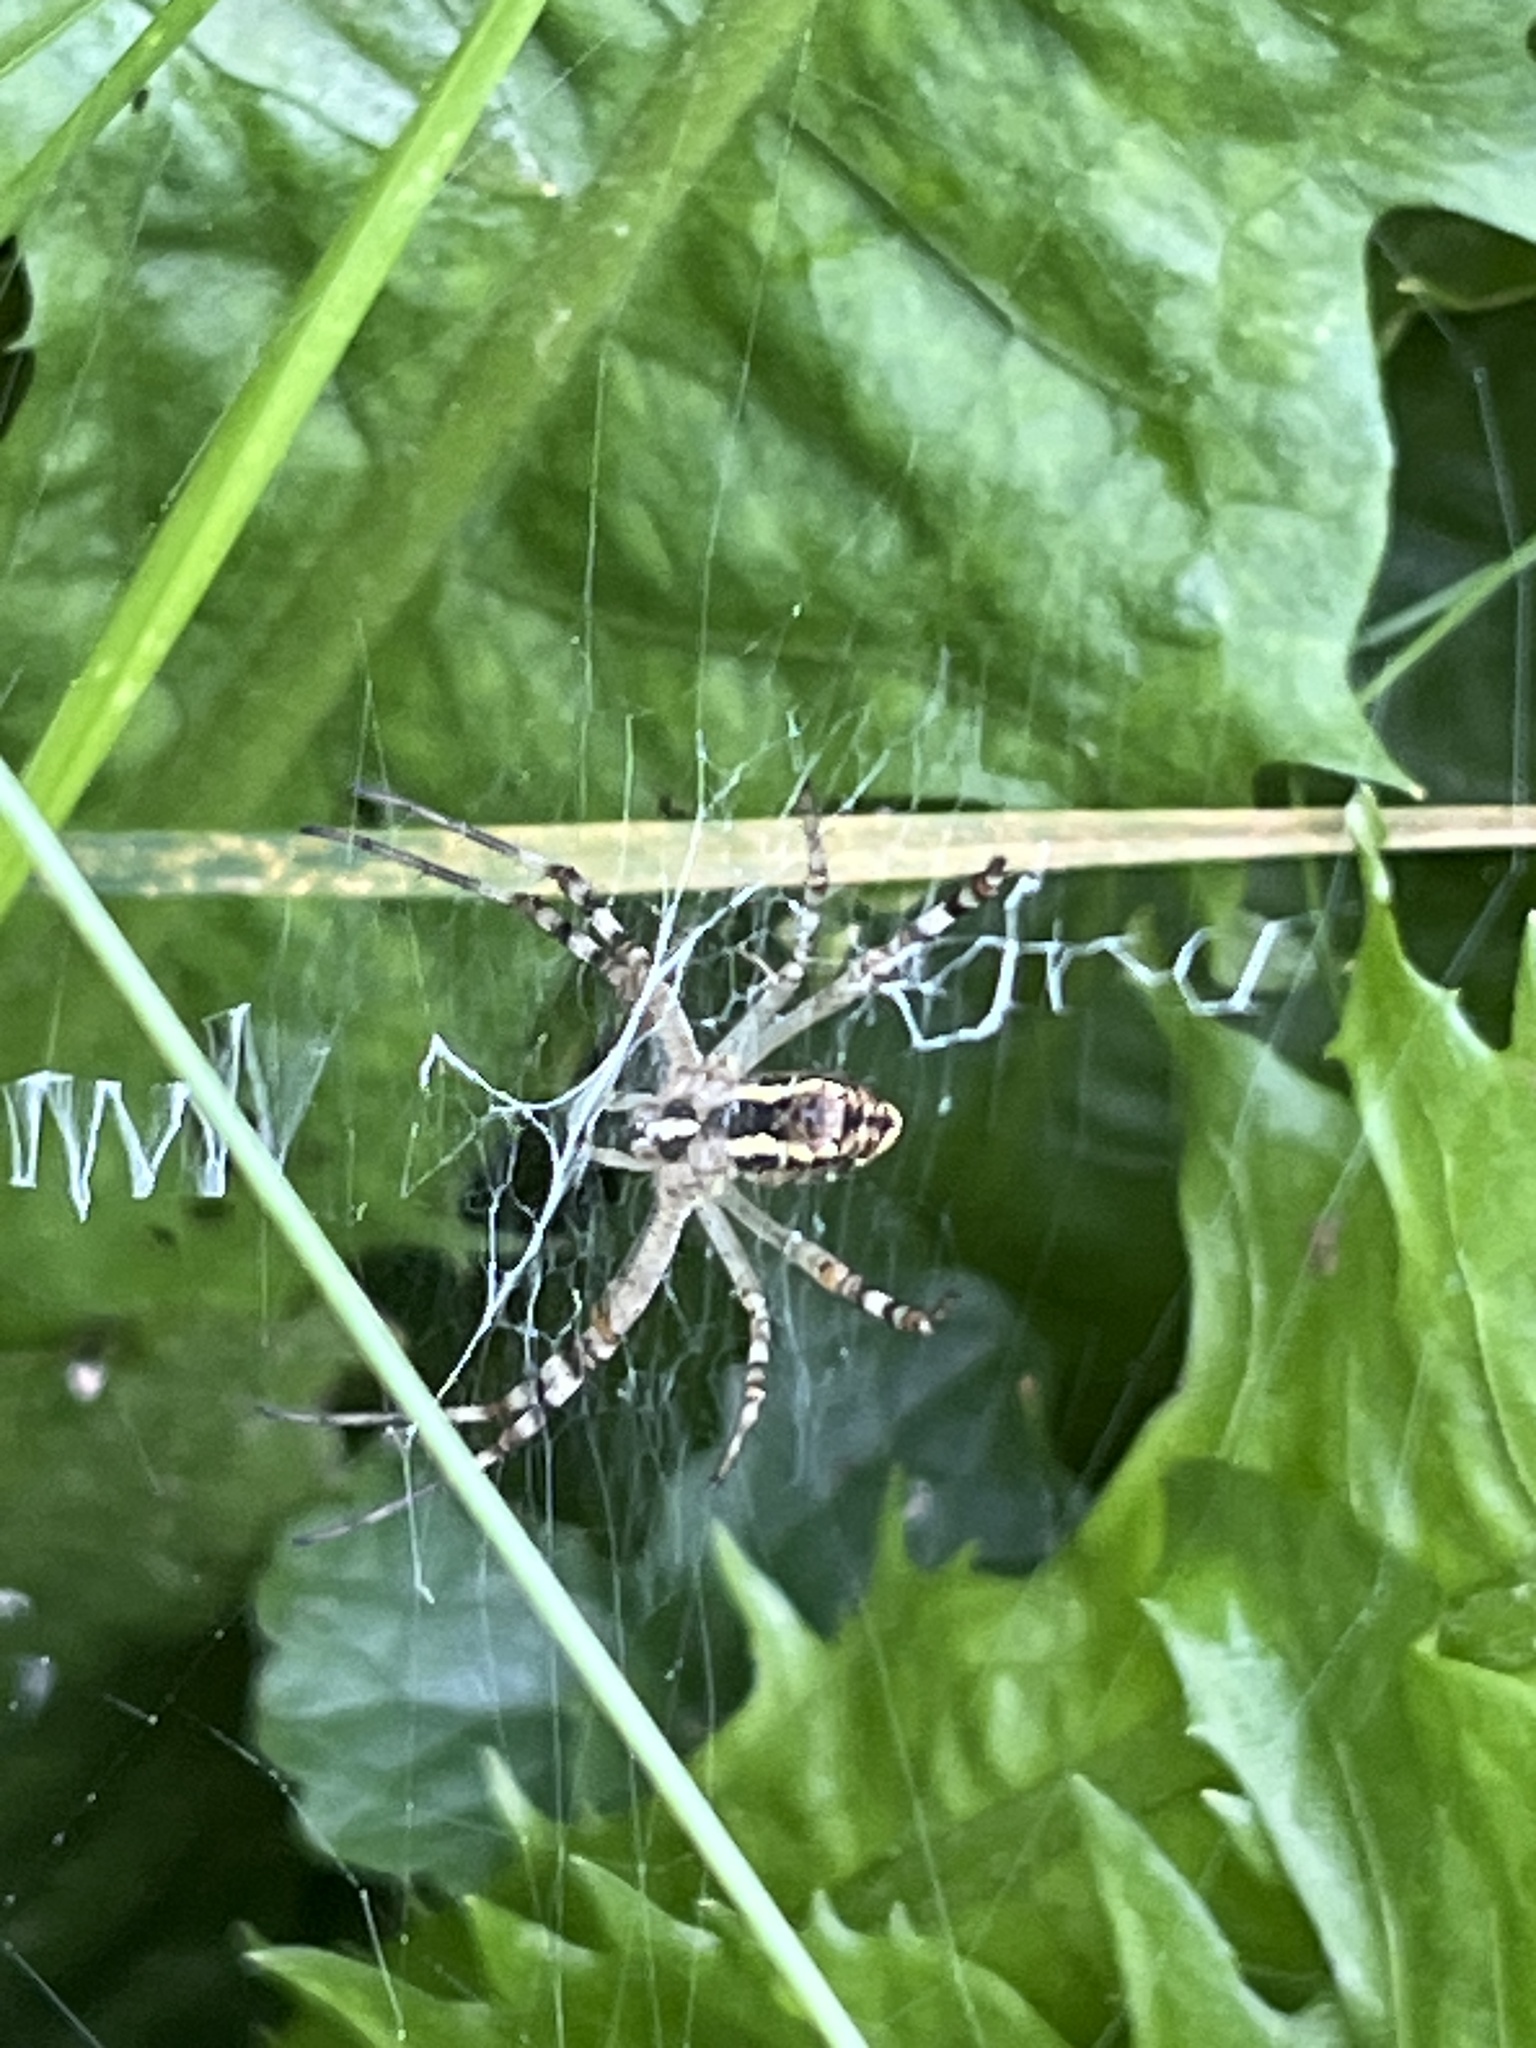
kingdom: Animalia
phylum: Arthropoda
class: Arachnida
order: Araneae
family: Araneidae
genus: Argiope
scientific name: Argiope bruennichi
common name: Wasp spider
